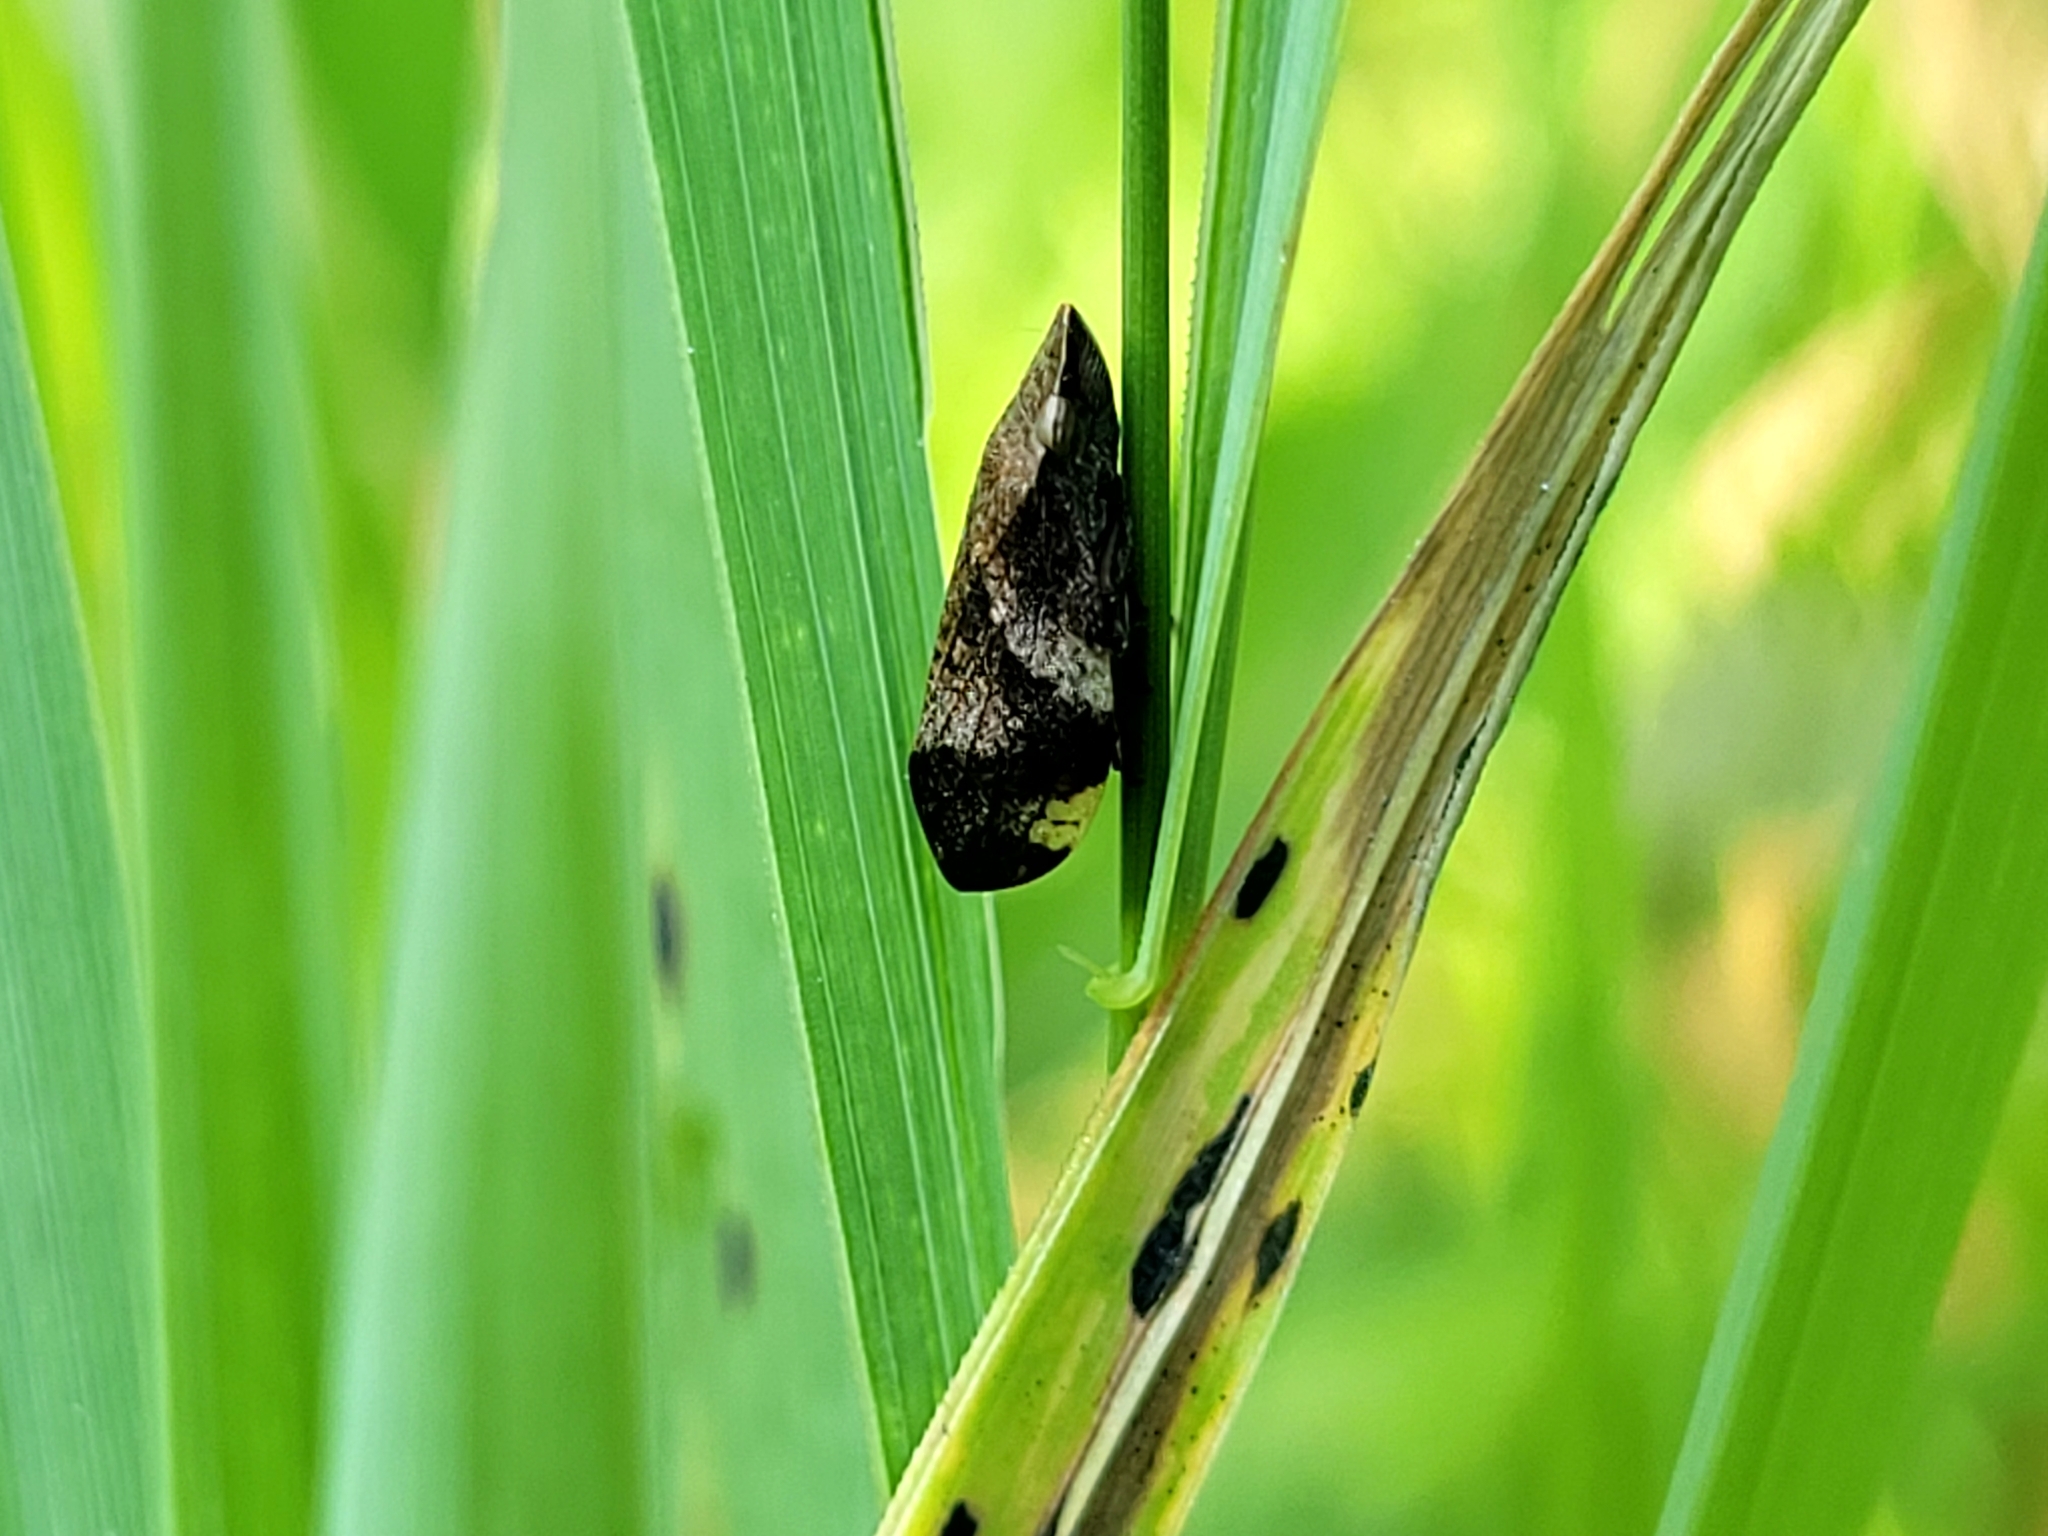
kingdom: Animalia
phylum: Arthropoda
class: Insecta
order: Hemiptera
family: Aphrophoridae
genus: Lepyronia
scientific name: Lepyronia quadrangularis
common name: Diamond-backed spittlebug
